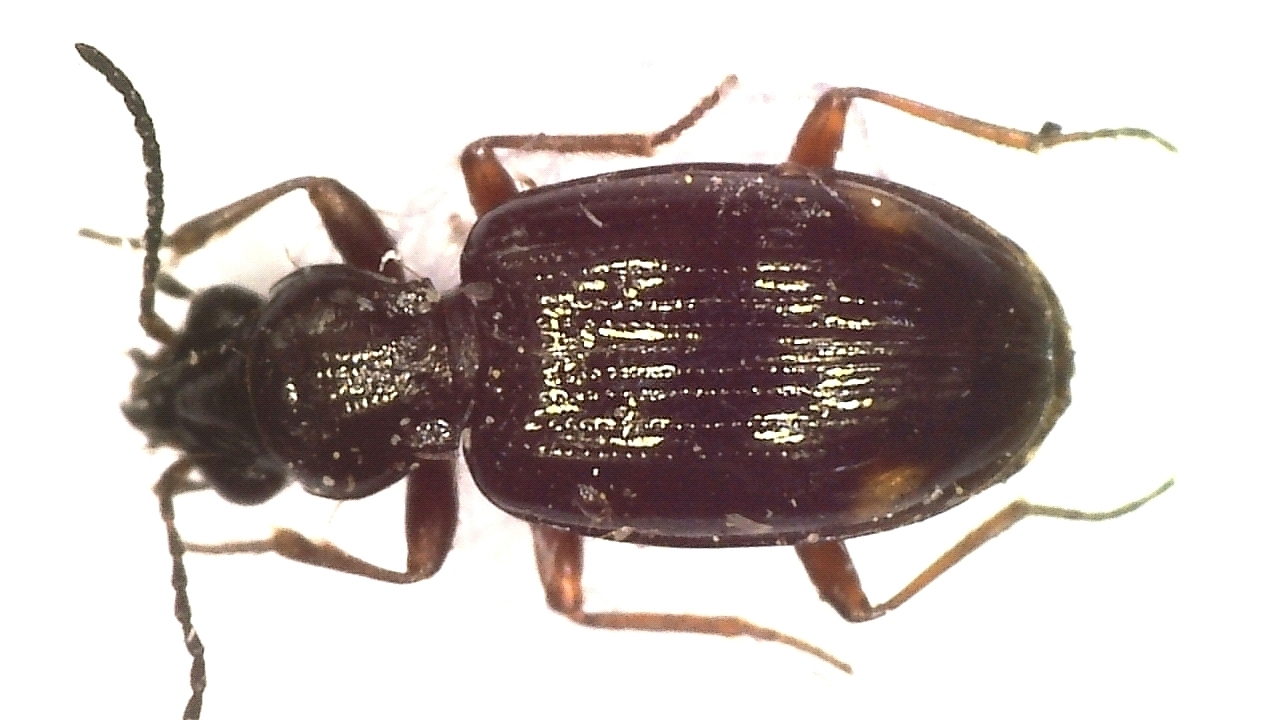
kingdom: Animalia
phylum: Arthropoda
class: Insecta
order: Coleoptera
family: Carabidae
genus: Bembidion
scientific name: Bembidion tenellum
